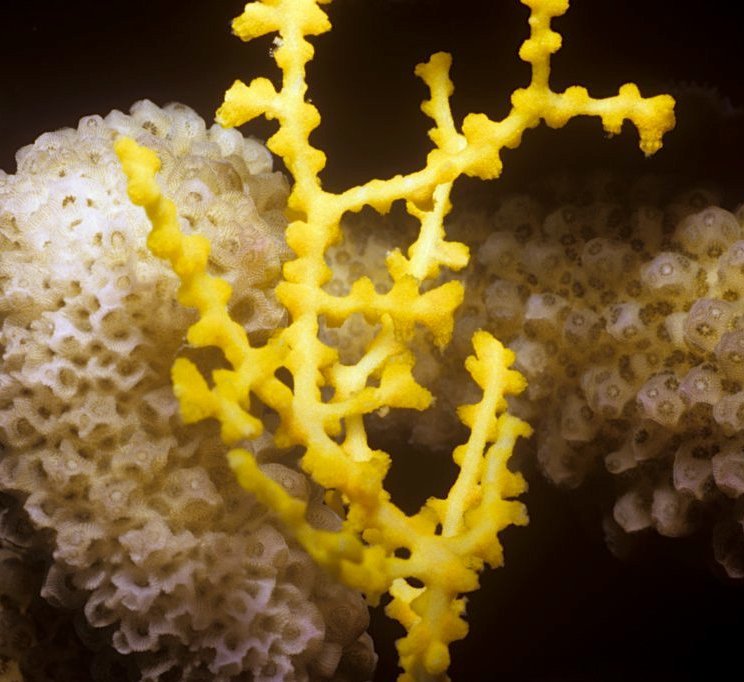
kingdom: Animalia
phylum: Cnidaria
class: Anthozoa
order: Malacalcyonacea
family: Melithaeidae
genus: Melithaea
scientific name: Melithaea bicolor
